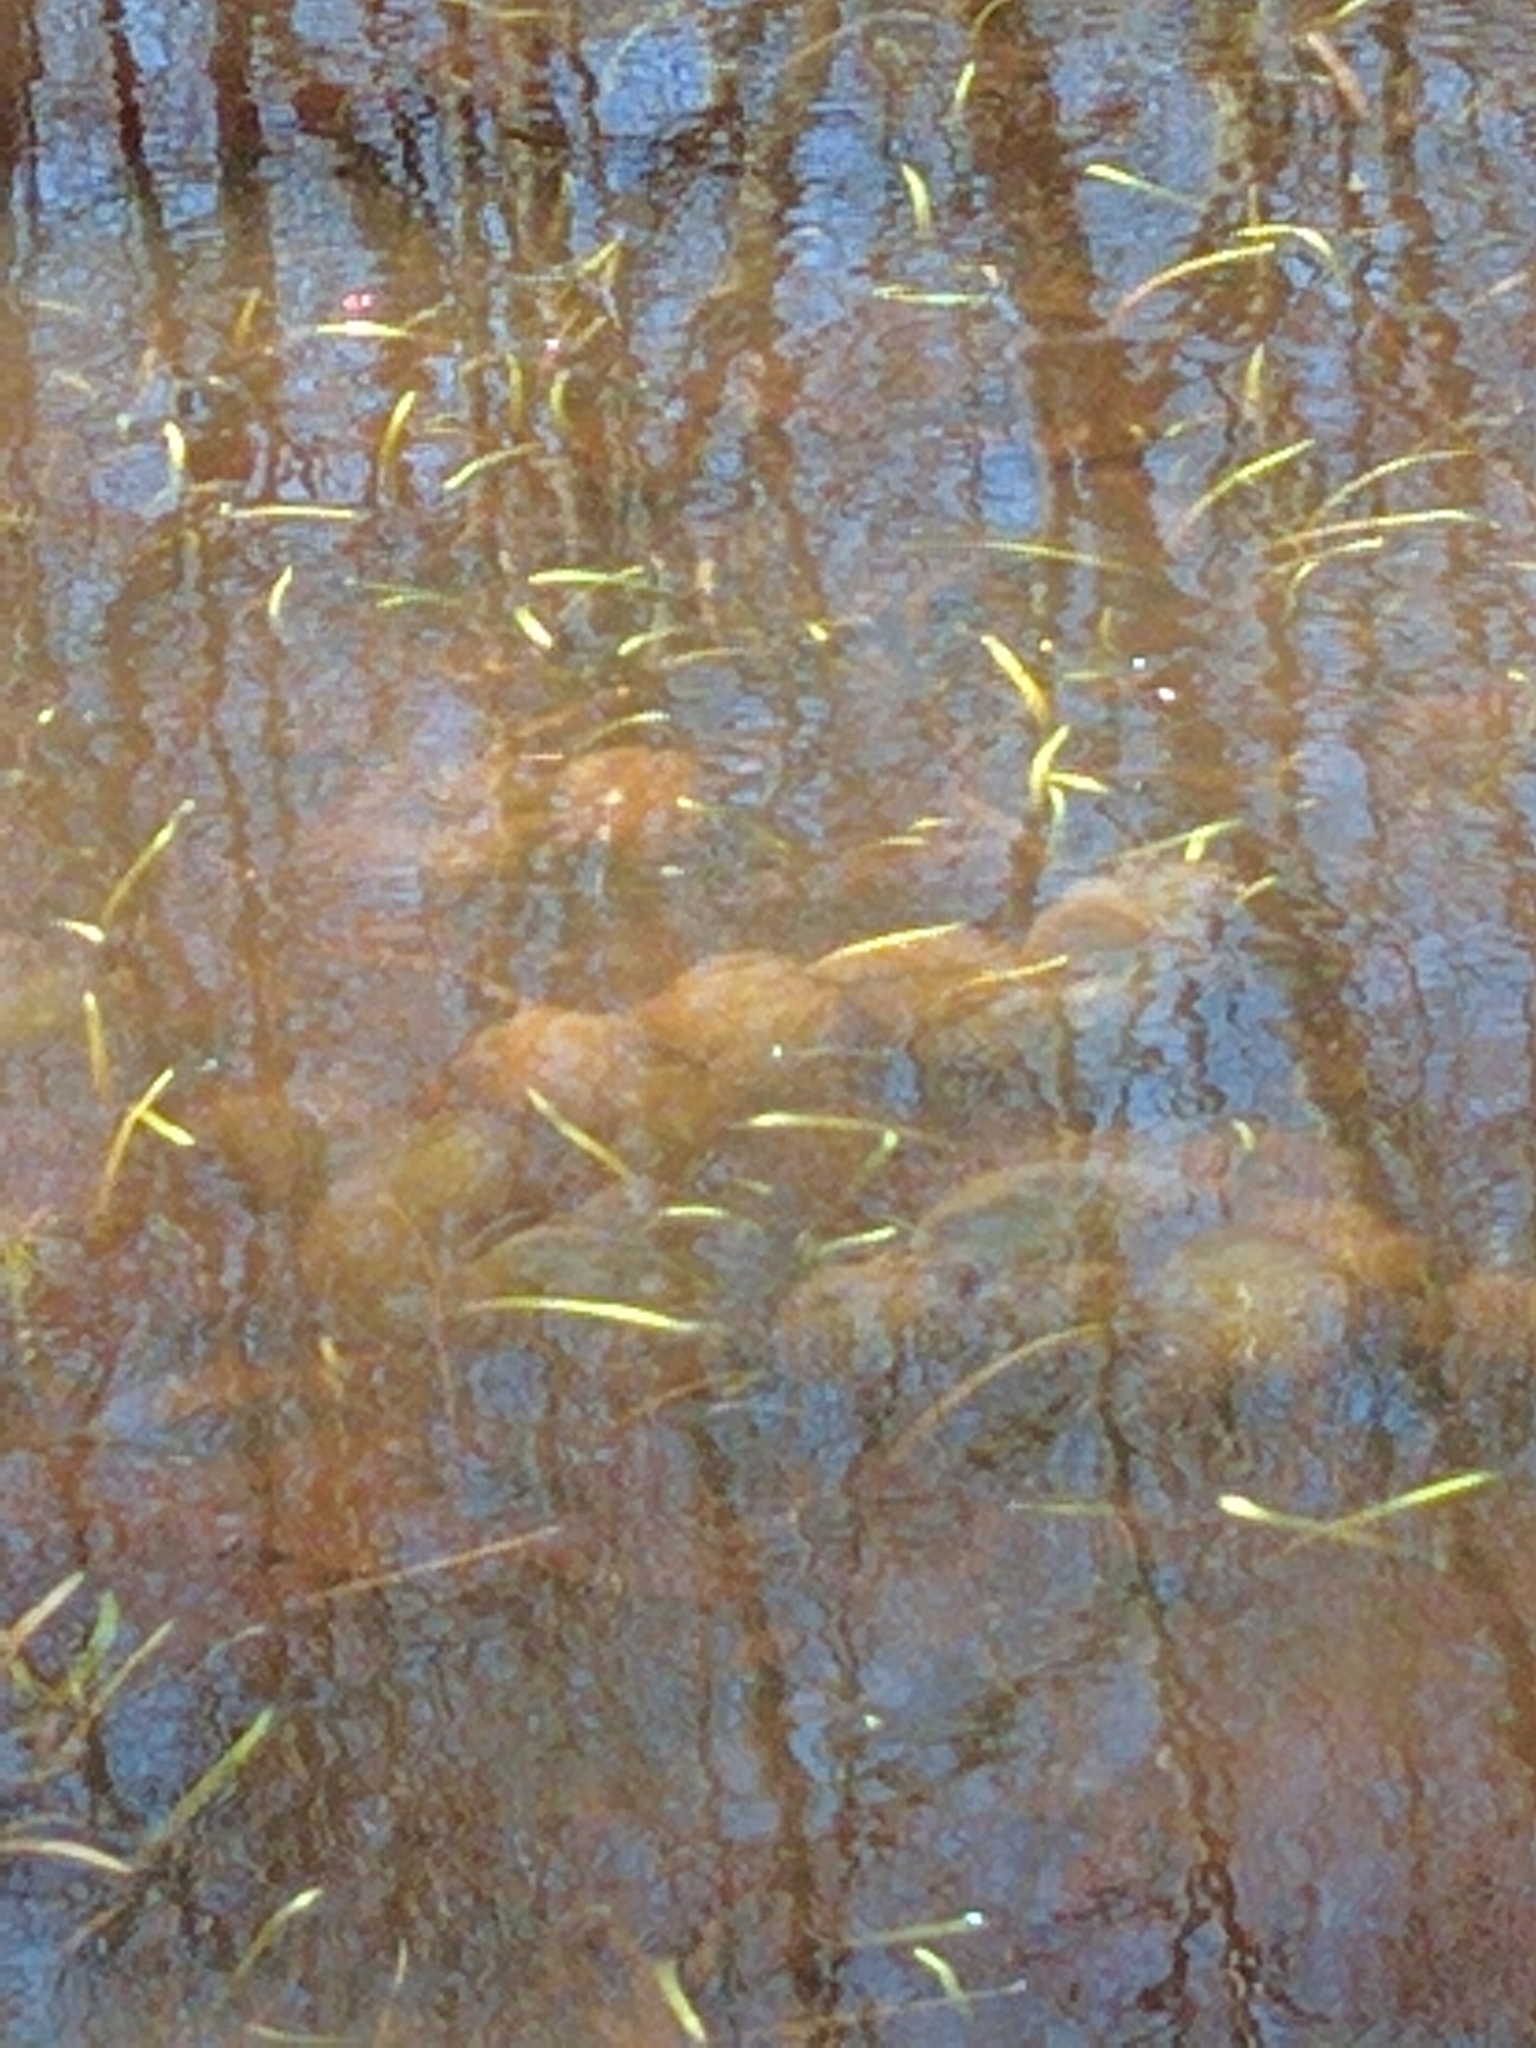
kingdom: Animalia
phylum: Chordata
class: Amphibia
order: Caudata
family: Ambystomatidae
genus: Ambystoma
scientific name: Ambystoma maculatum
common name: Spotted salamander
